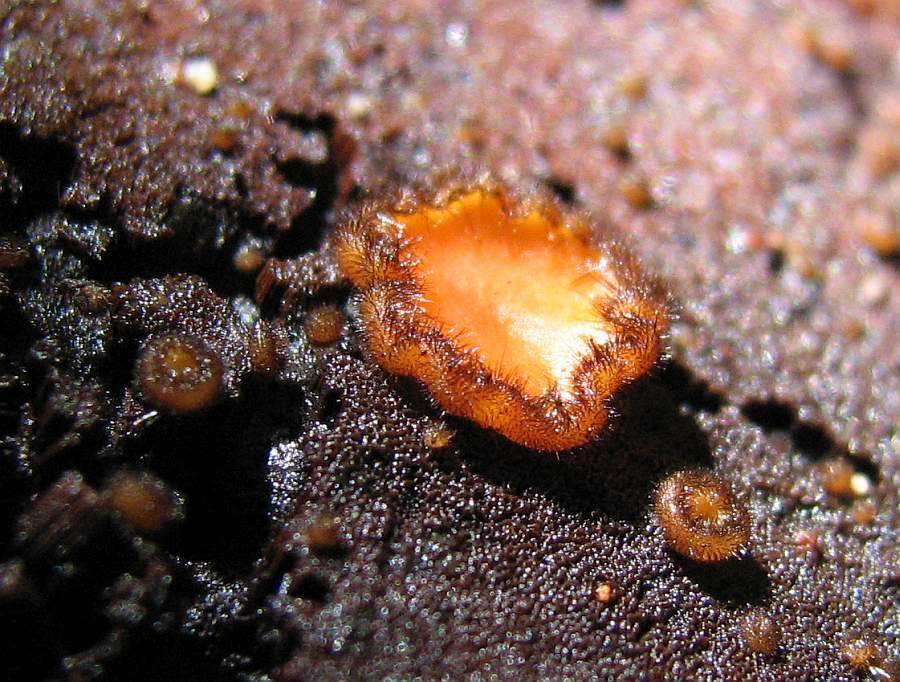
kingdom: Fungi
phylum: Ascomycota
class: Pezizomycetes
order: Pezizales
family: Pyronemataceae
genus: Scutellinia
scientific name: Scutellinia scutellata
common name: Common eyelash
